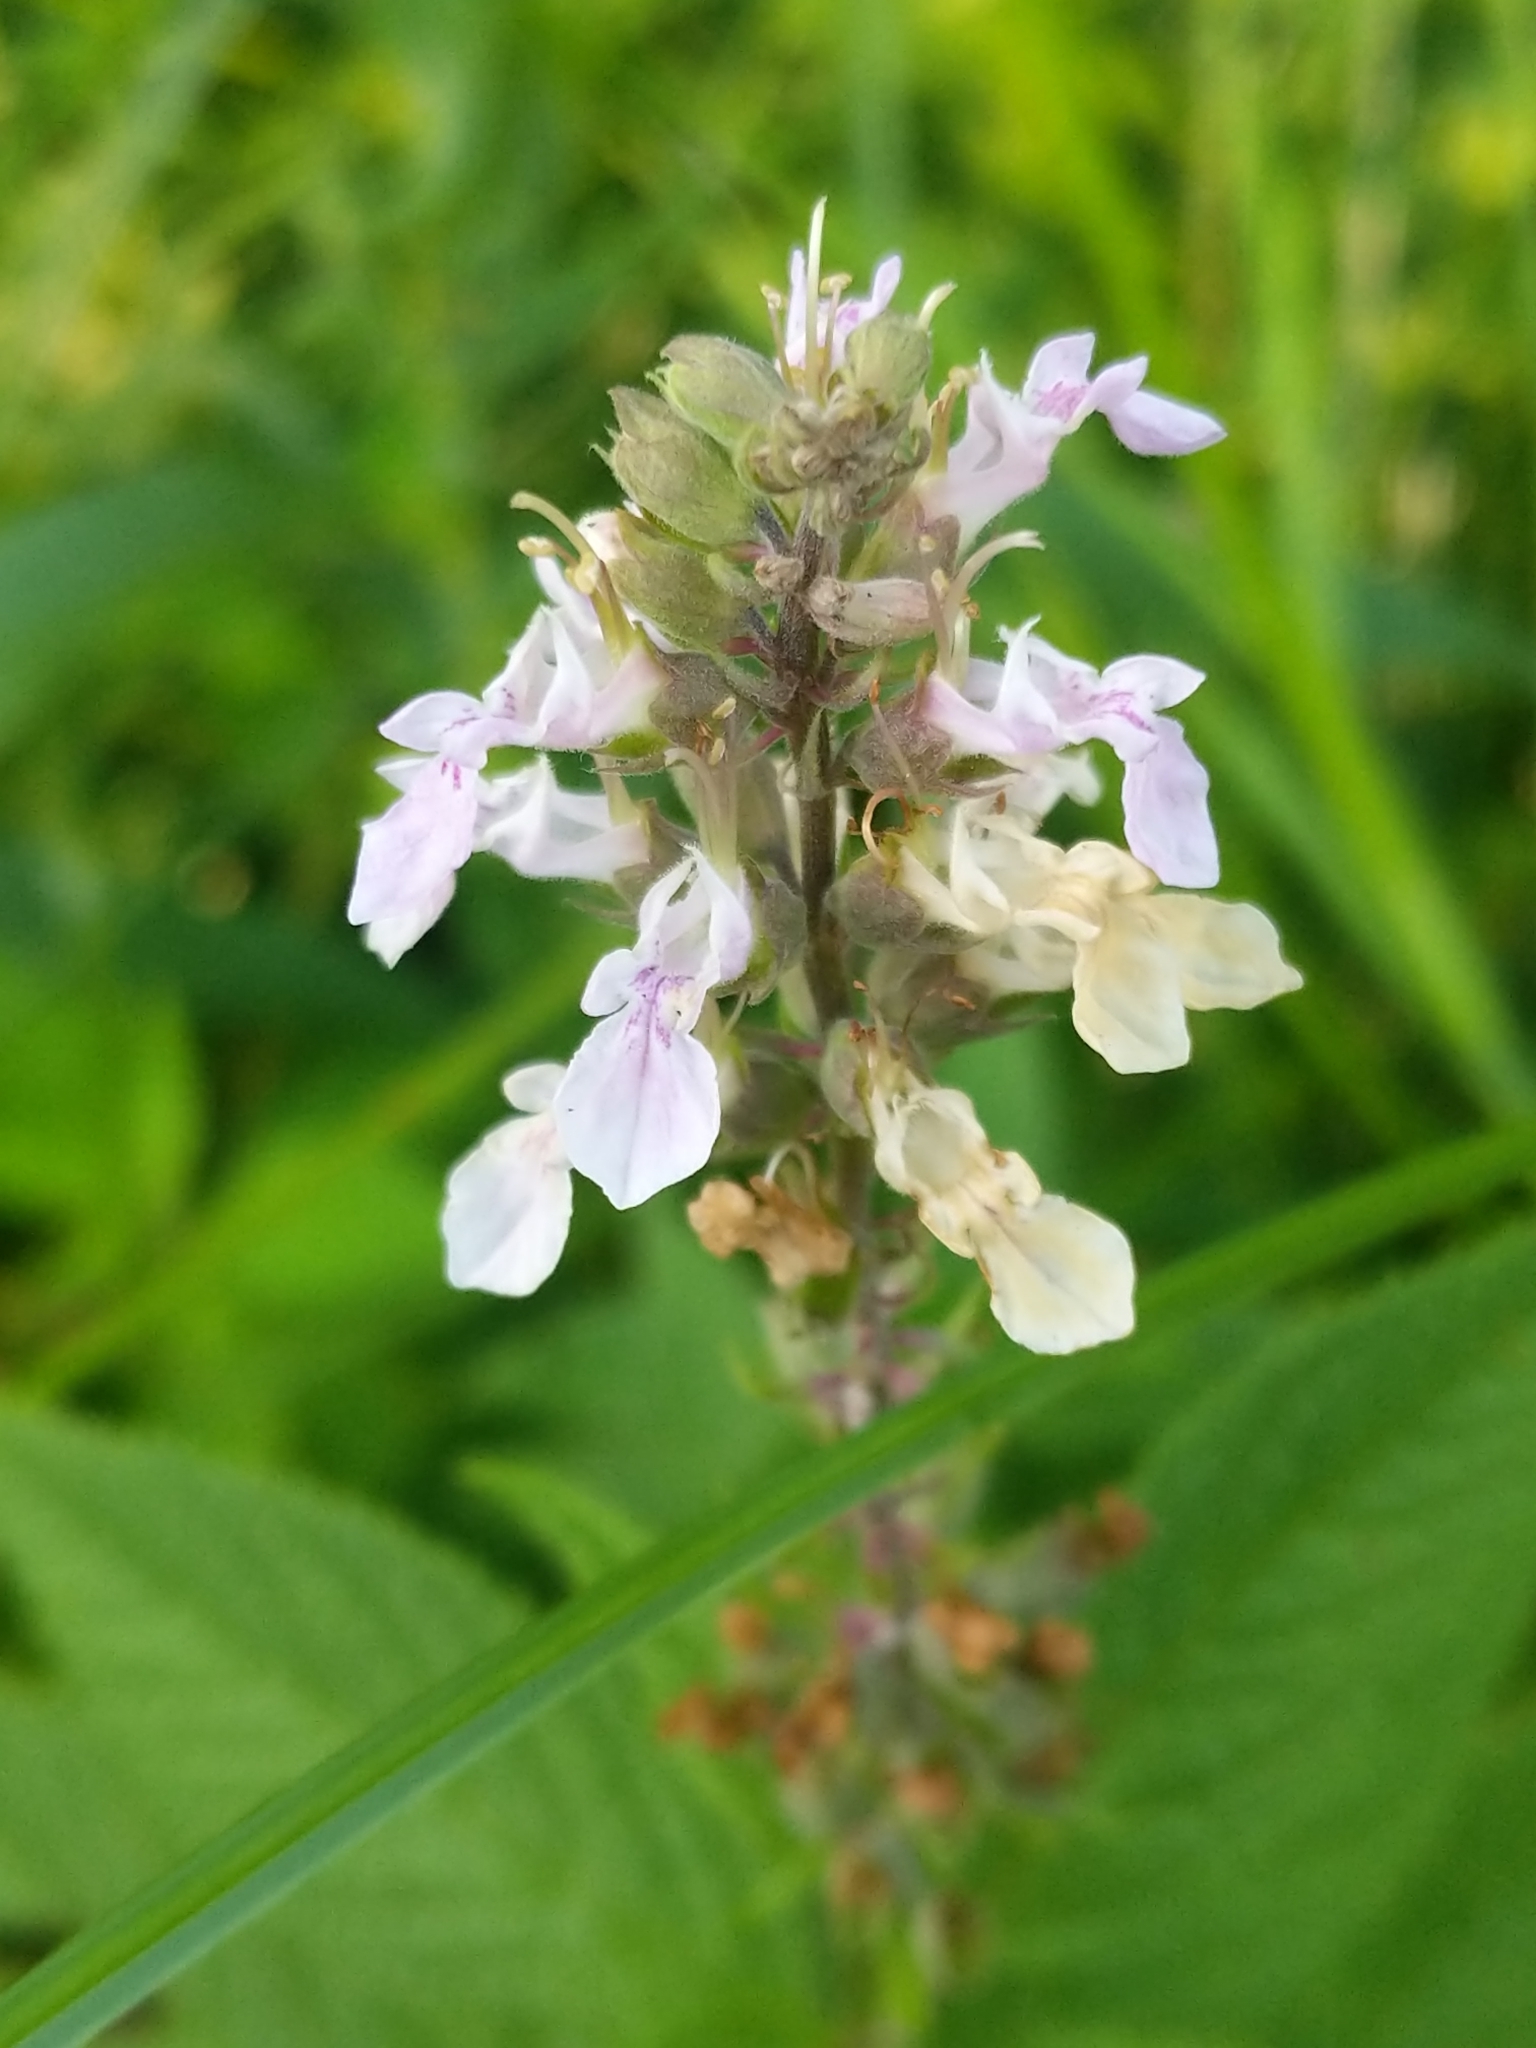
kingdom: Plantae
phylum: Tracheophyta
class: Magnoliopsida
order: Lamiales
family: Lamiaceae
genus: Teucrium
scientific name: Teucrium canadense
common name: American germander
